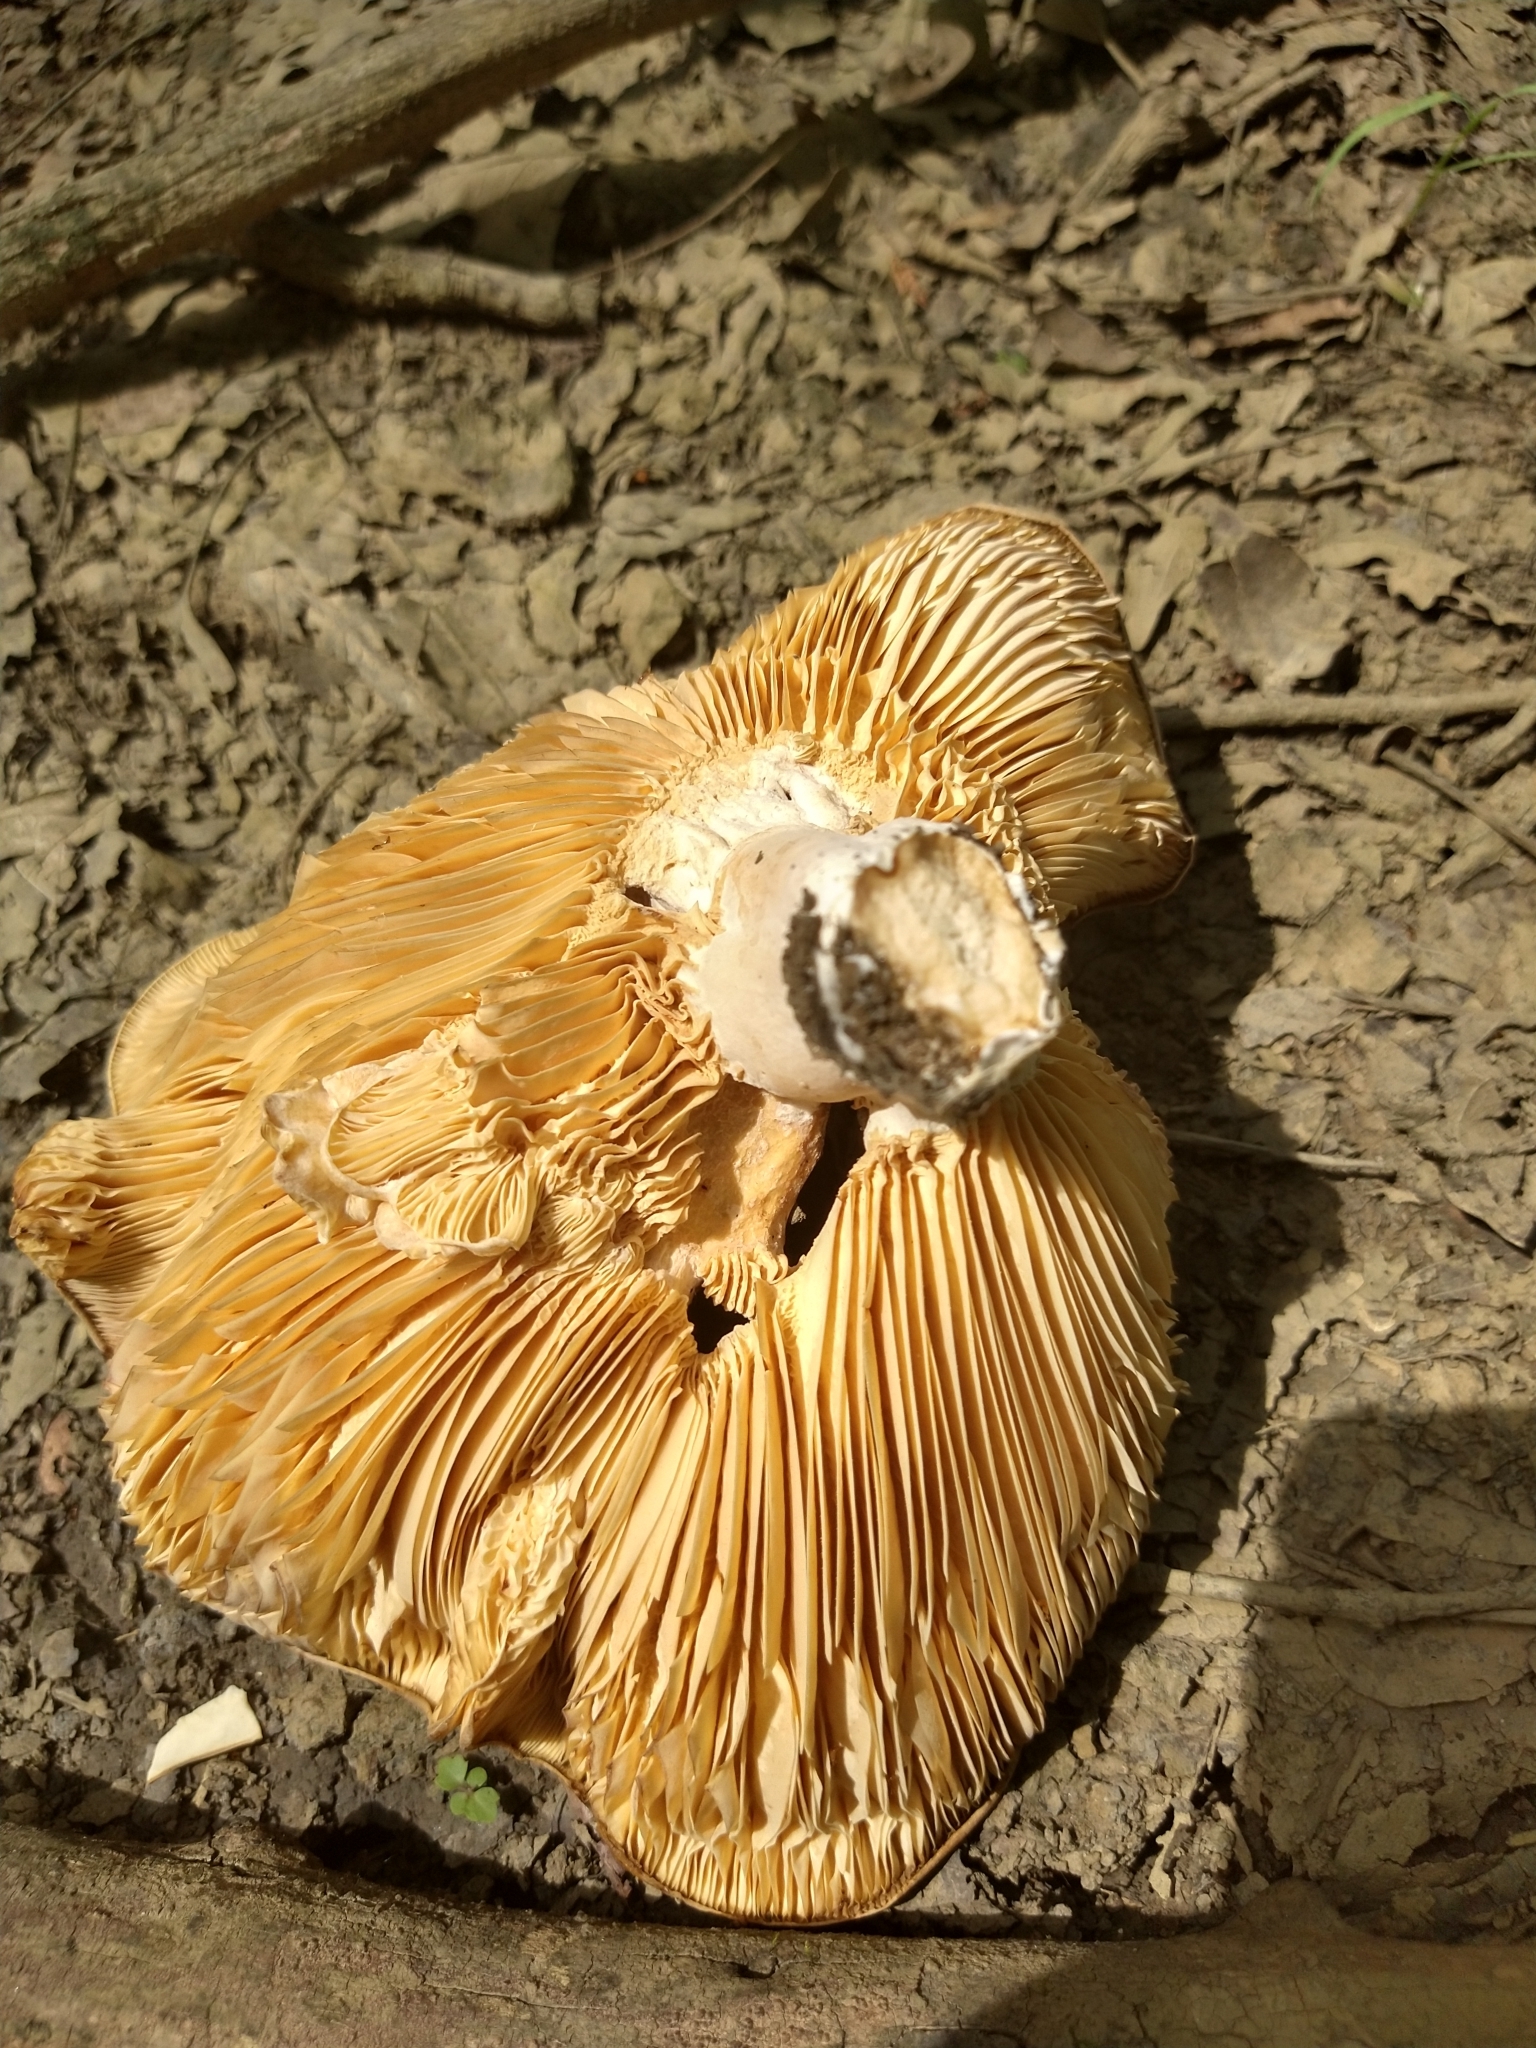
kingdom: Fungi
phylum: Basidiomycota
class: Agaricomycetes
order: Russulales
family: Russulaceae
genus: Lactarius
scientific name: Lactarius psammicola
